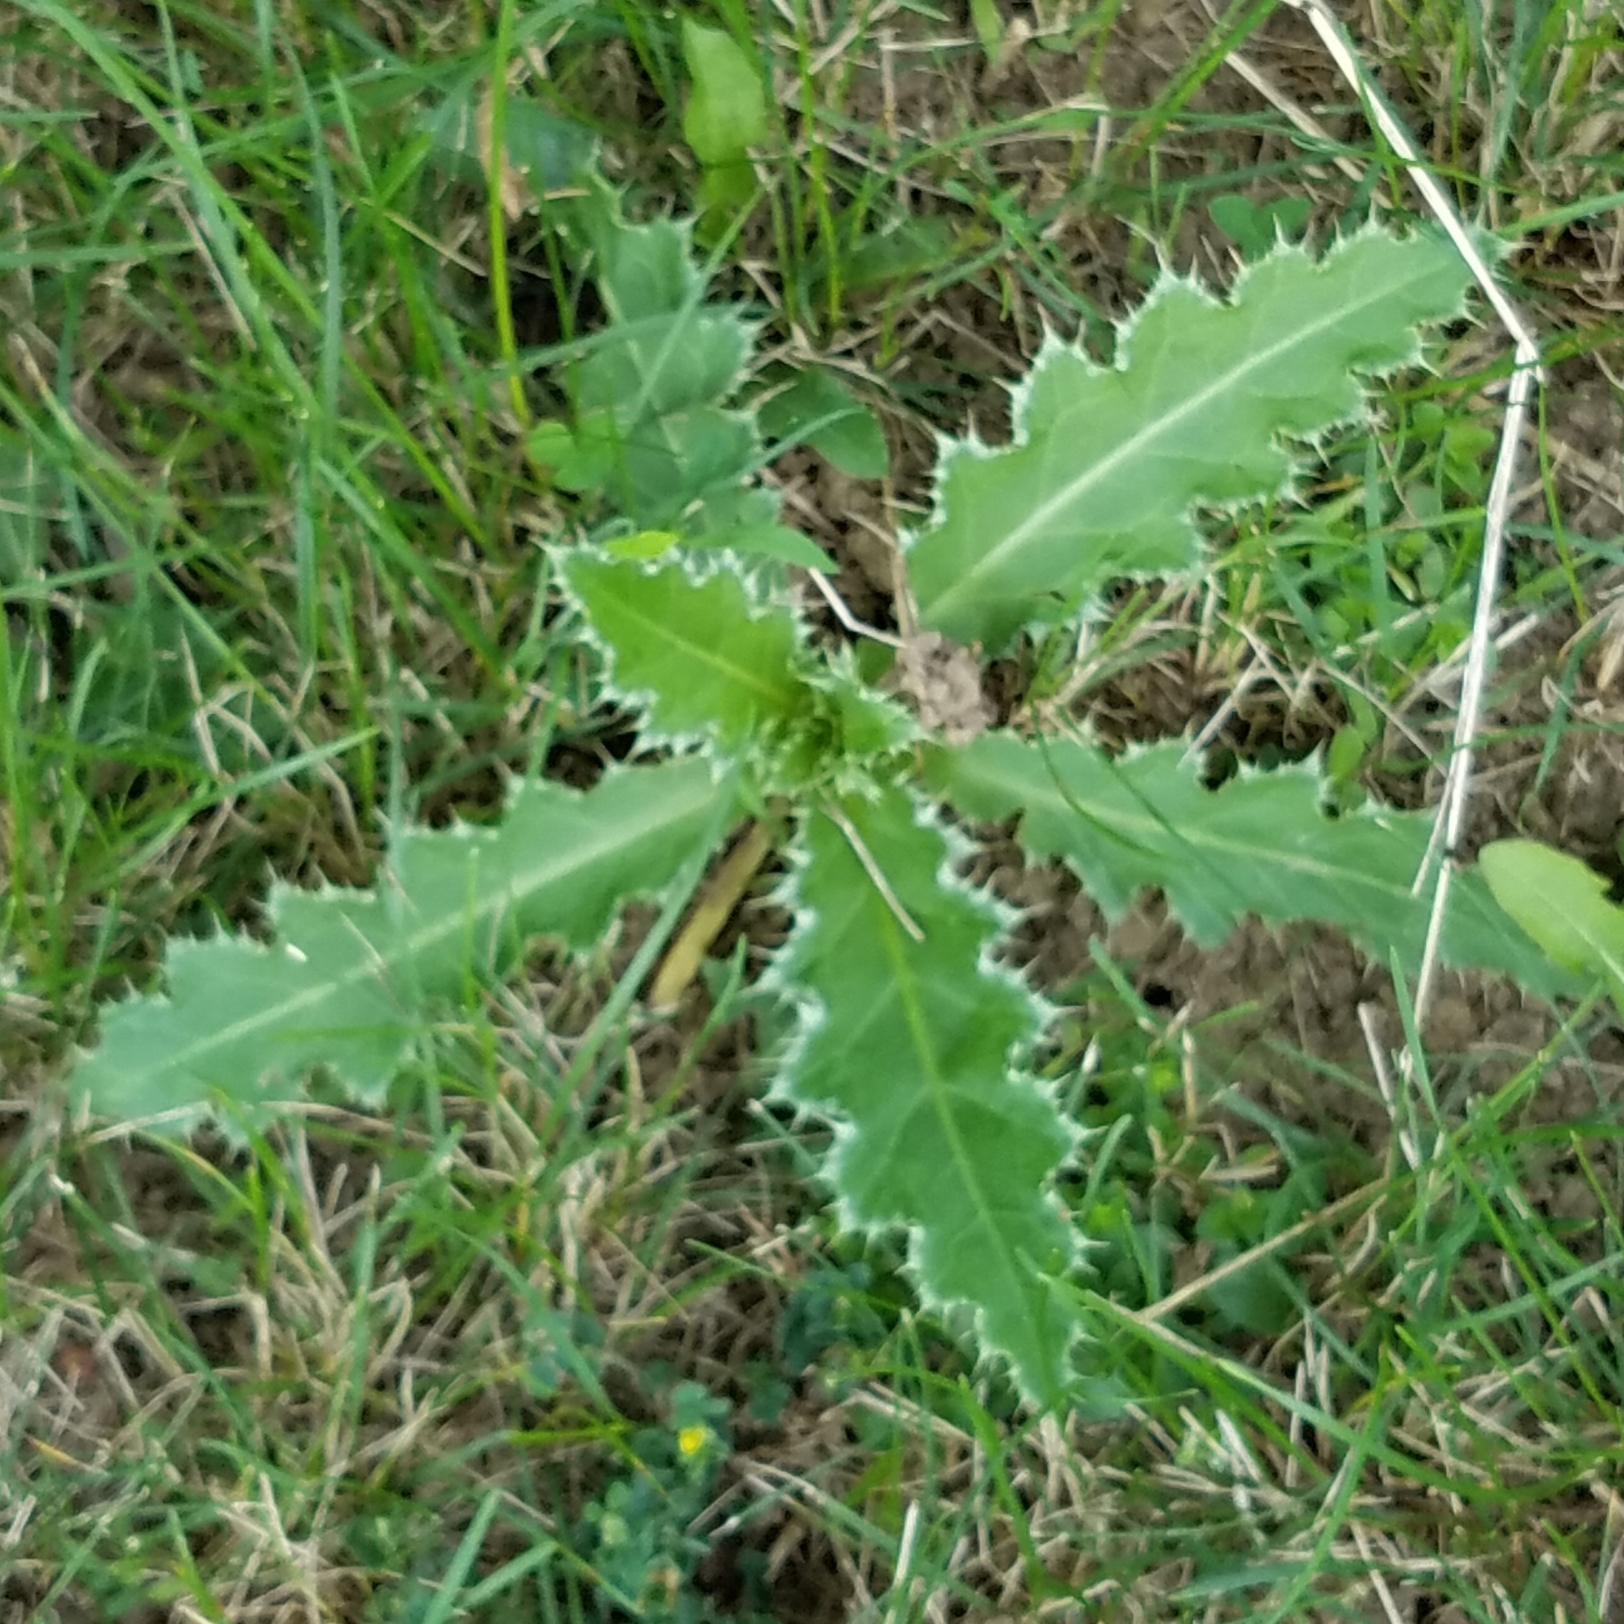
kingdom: Plantae
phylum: Tracheophyta
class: Magnoliopsida
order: Asterales
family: Asteraceae
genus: Carduus
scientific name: Carduus nutans
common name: Musk thistle
